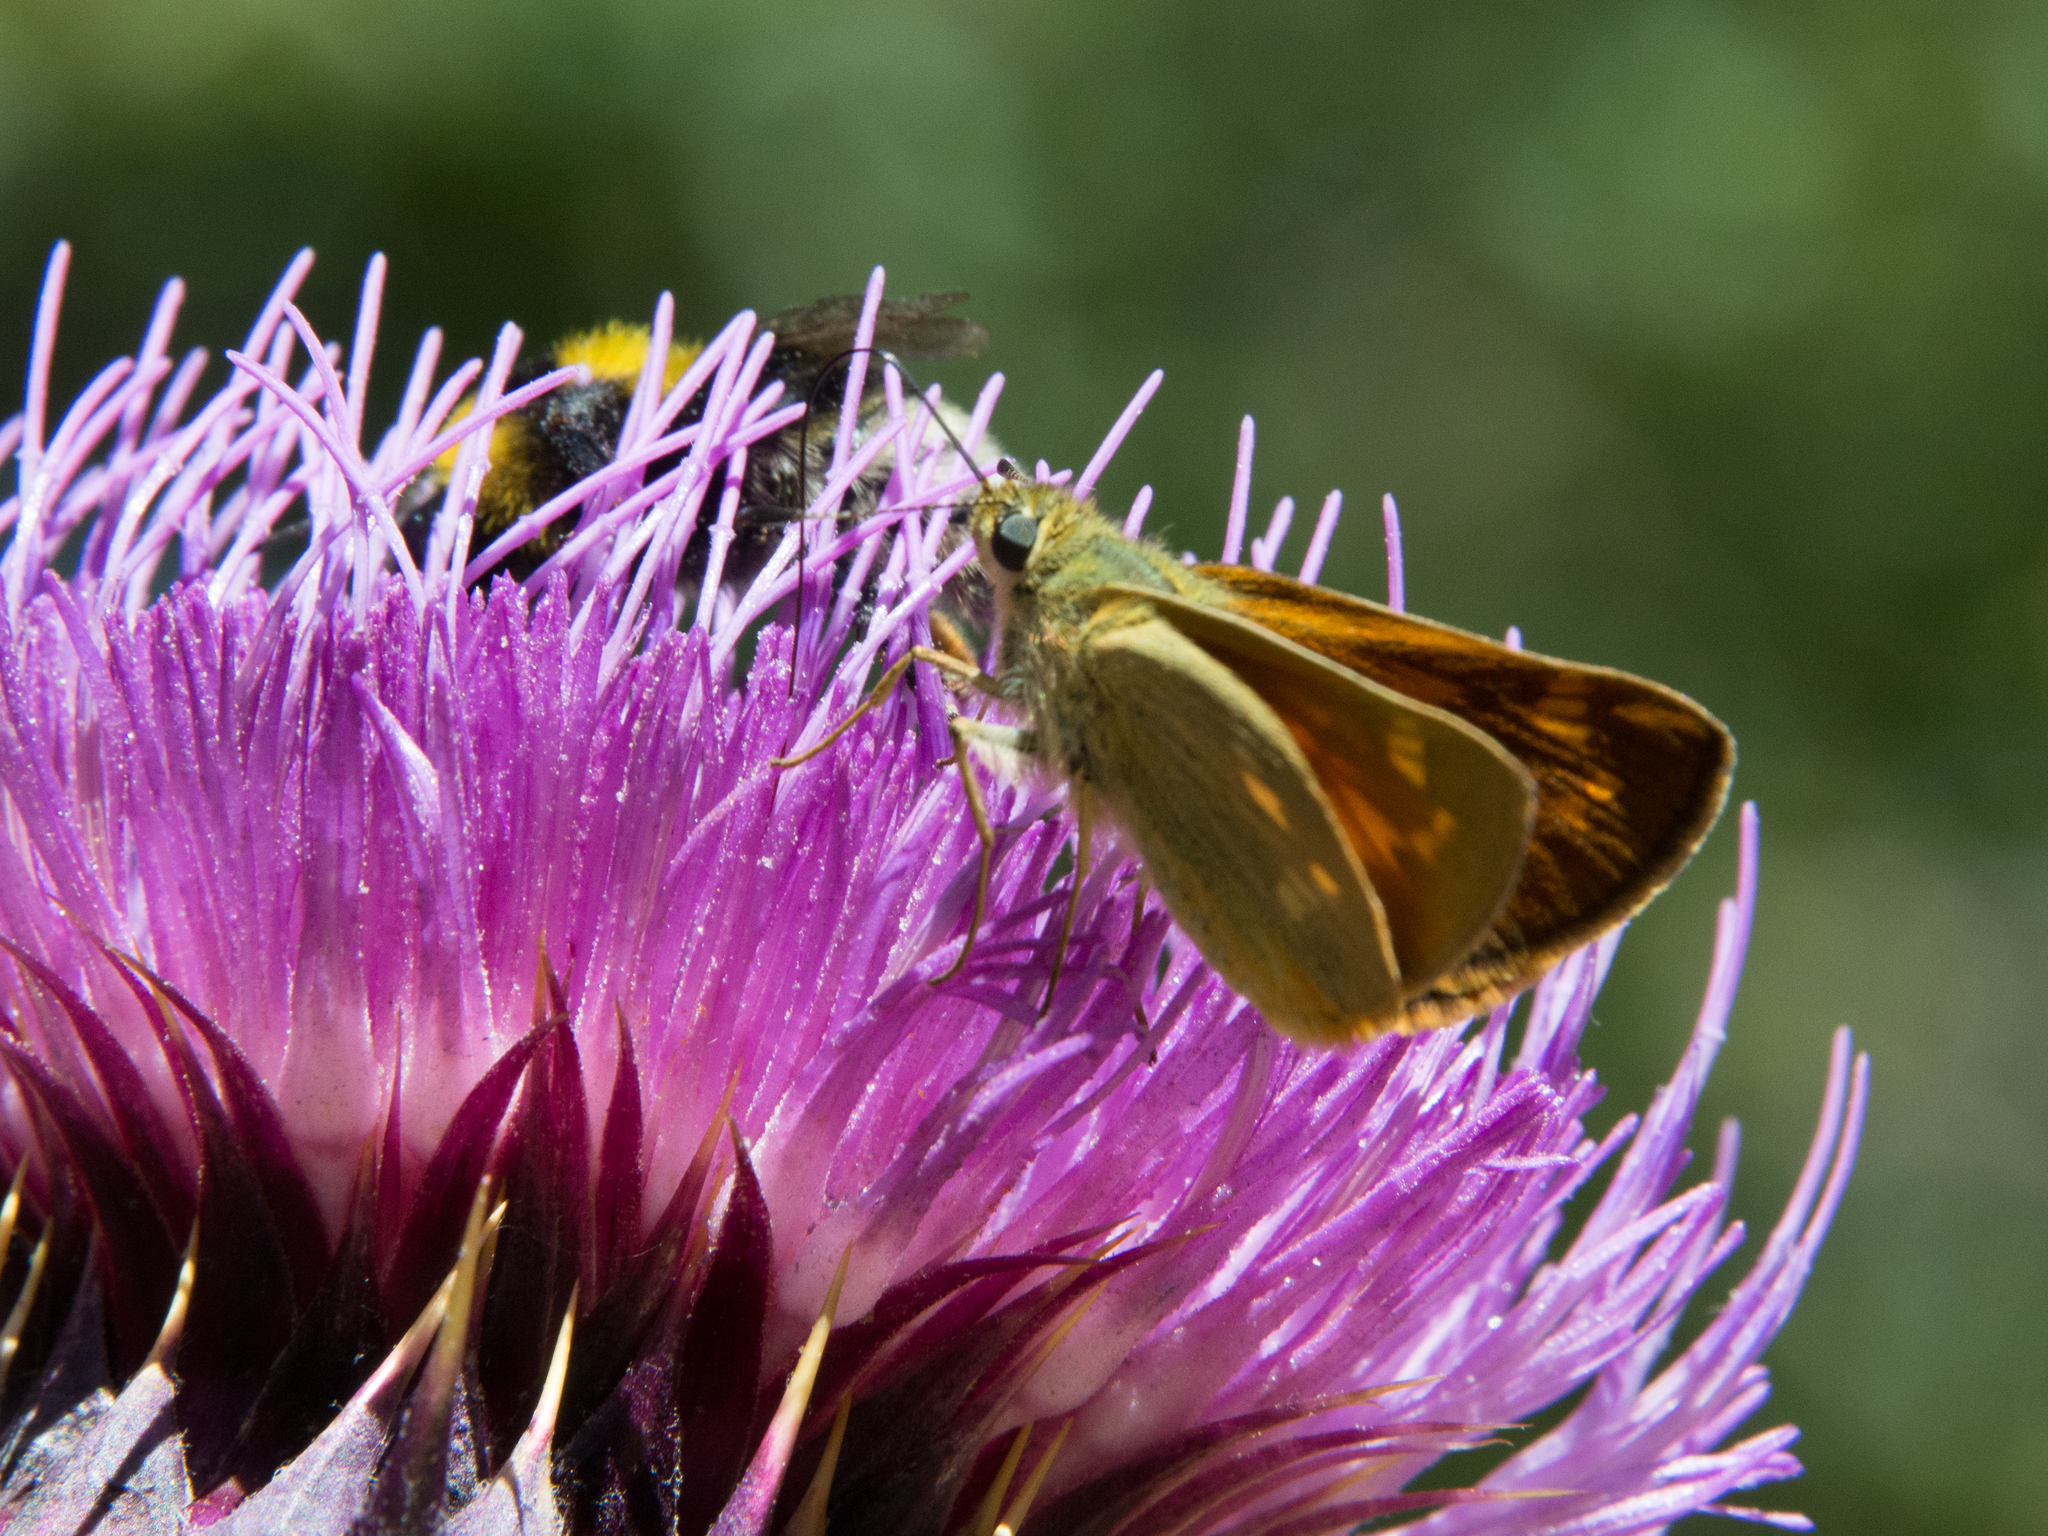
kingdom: Animalia
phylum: Arthropoda
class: Insecta
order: Lepidoptera
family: Hesperiidae
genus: Ochlodes
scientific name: Ochlodes venata
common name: Large skipper
